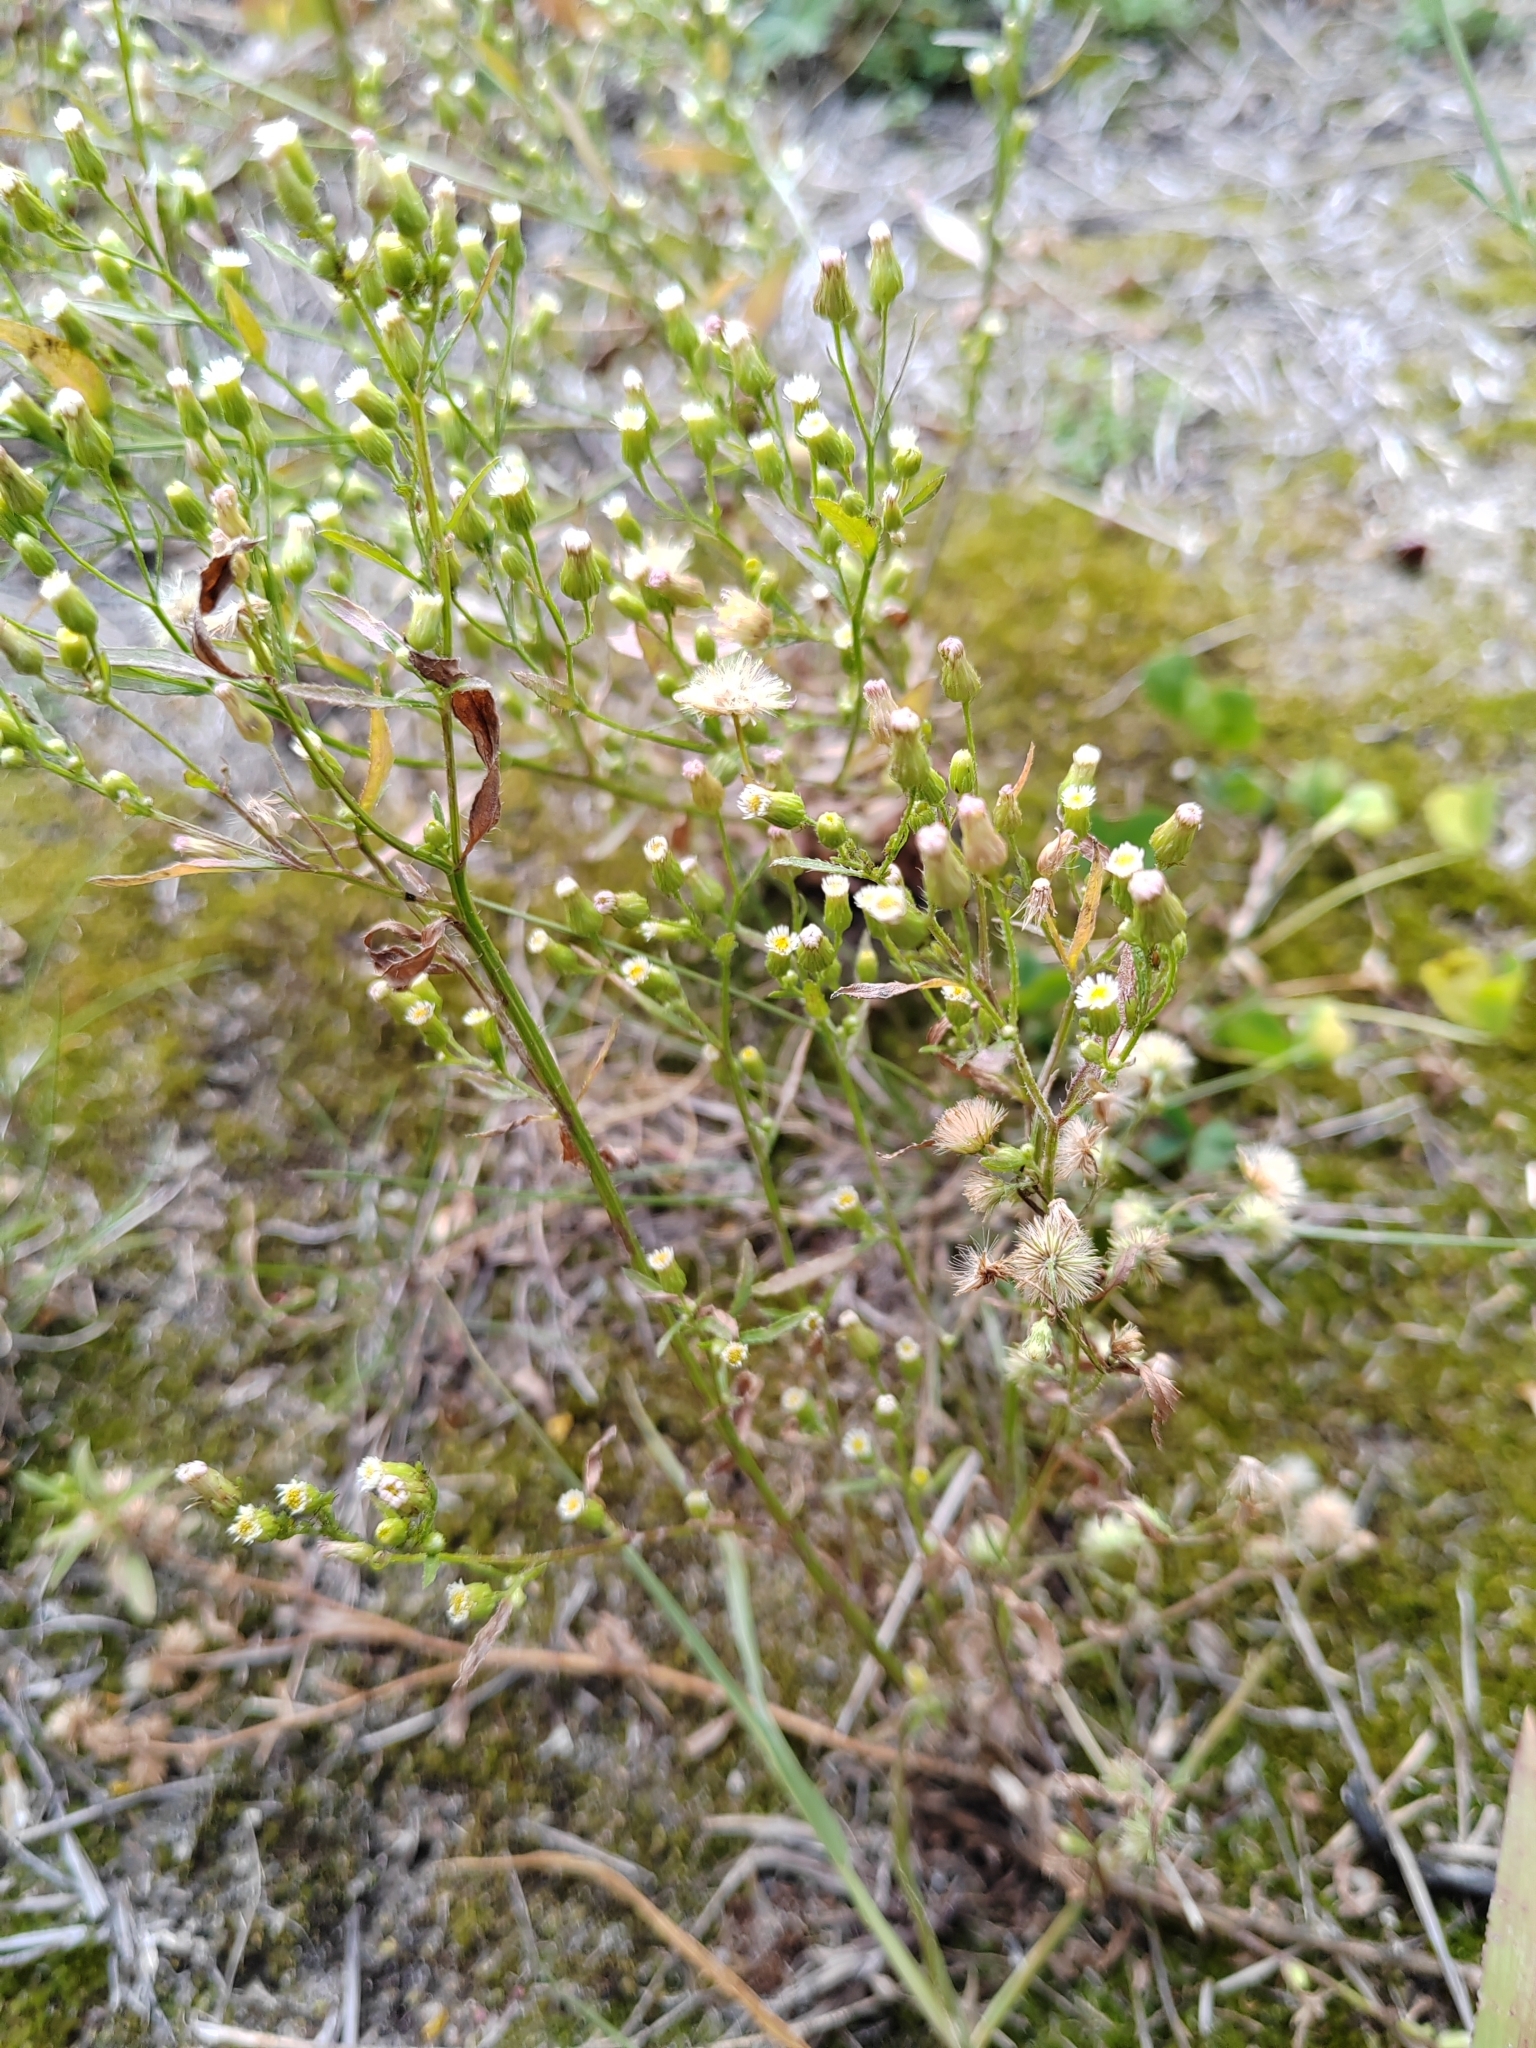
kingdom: Plantae
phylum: Tracheophyta
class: Magnoliopsida
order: Asterales
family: Asteraceae
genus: Erigeron
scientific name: Erigeron canadensis
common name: Canadian fleabane
